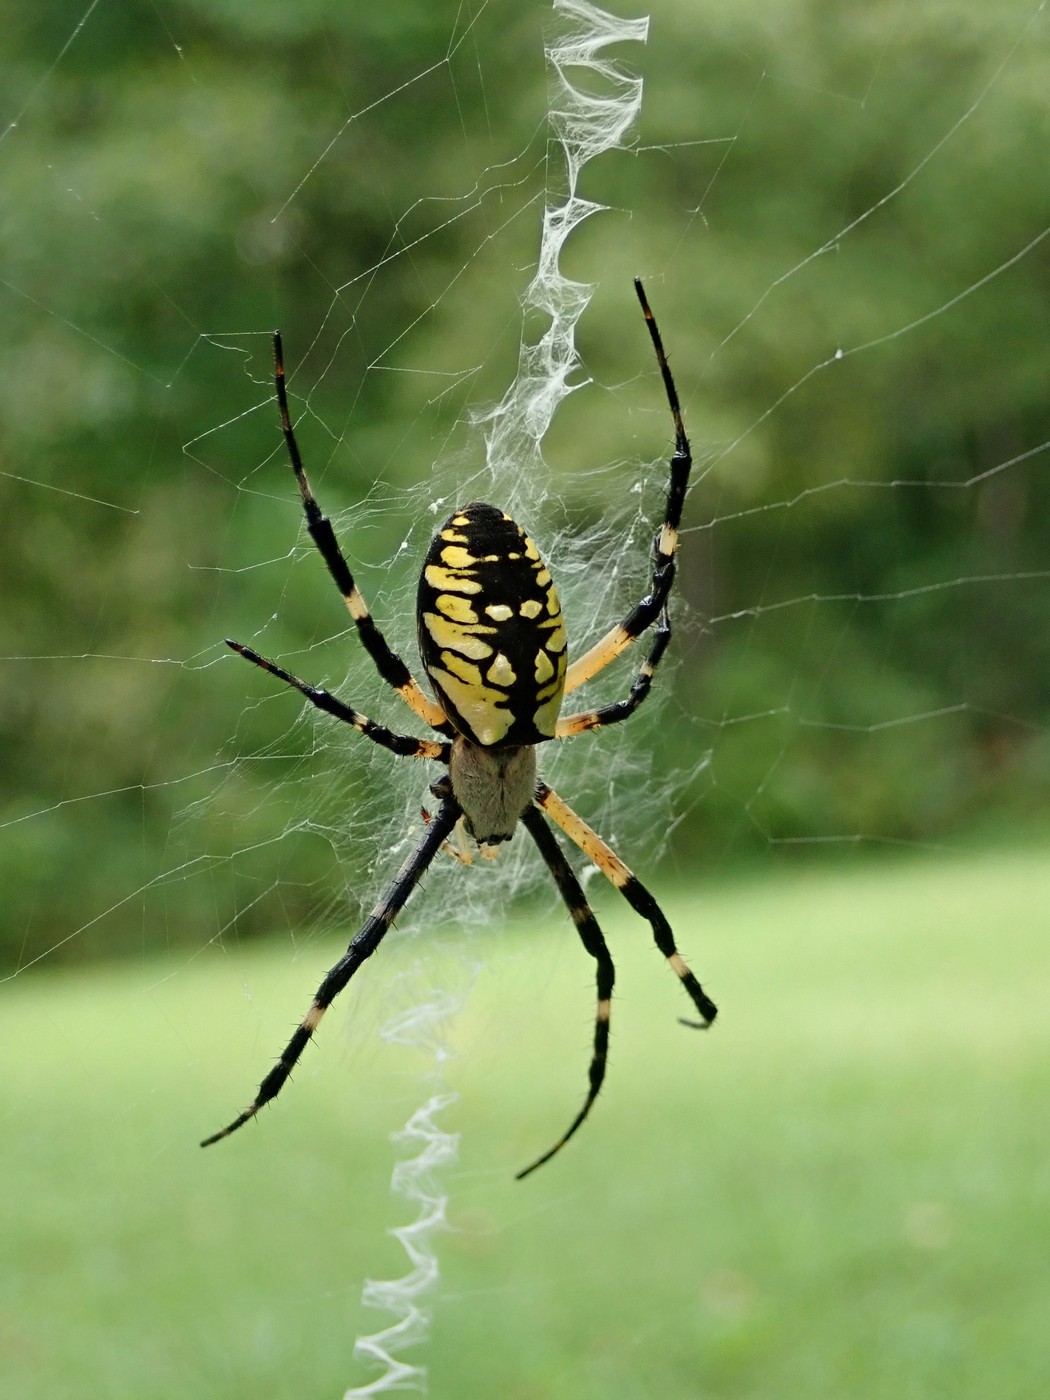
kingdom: Animalia
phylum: Arthropoda
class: Arachnida
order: Araneae
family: Araneidae
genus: Argiope
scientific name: Argiope aurantia
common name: Orb weavers
